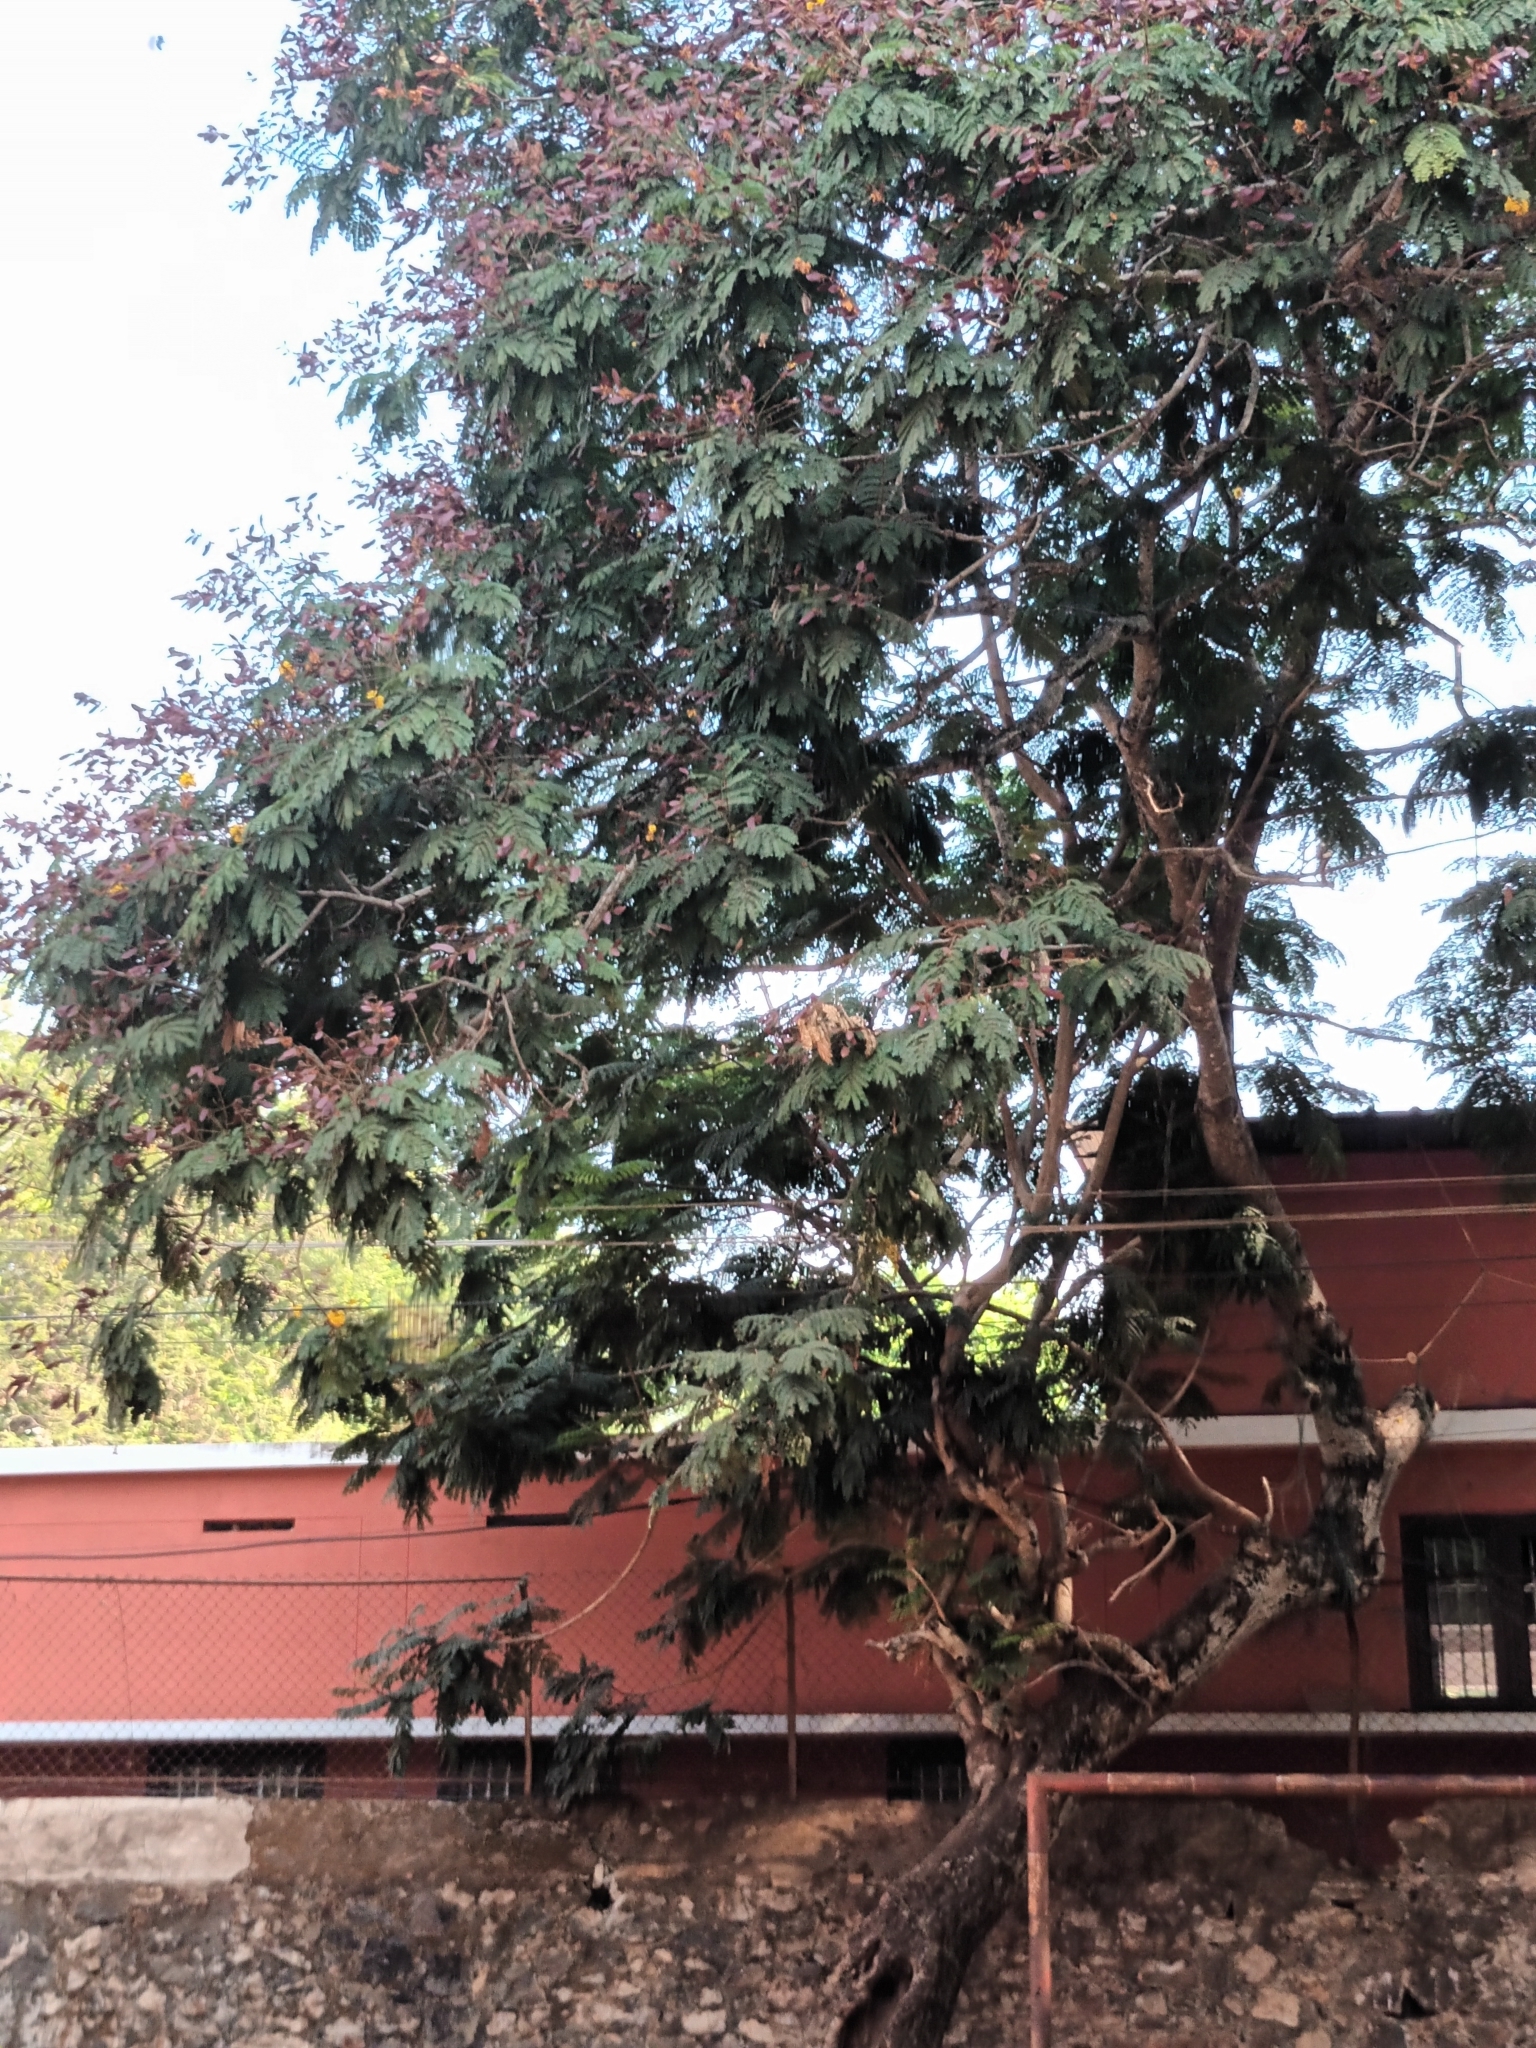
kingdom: Plantae
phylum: Tracheophyta
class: Magnoliopsida
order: Fabales
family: Fabaceae
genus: Peltophorum
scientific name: Peltophorum pterocarpum
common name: Yellow flame
